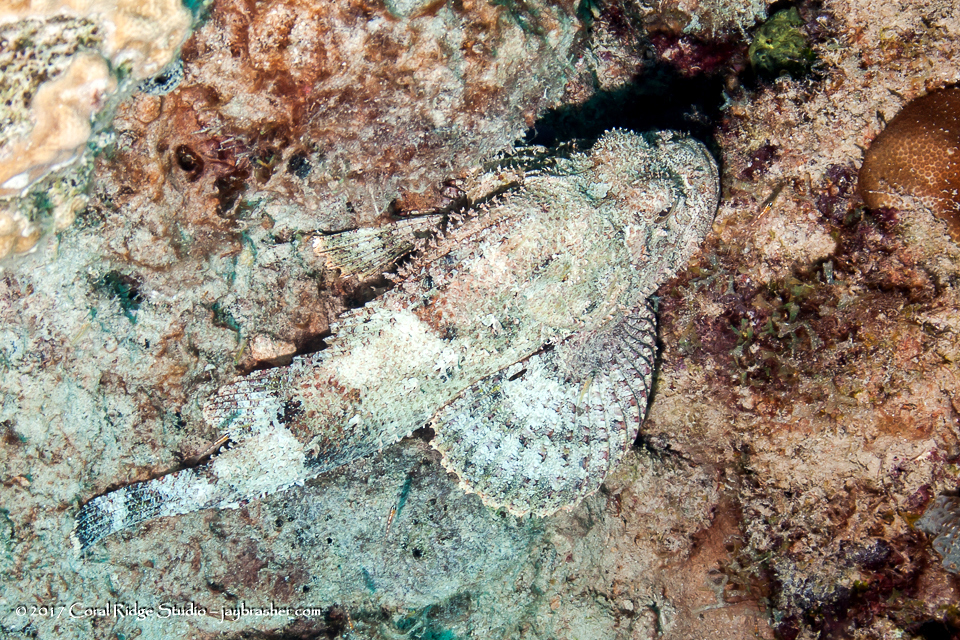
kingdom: Animalia
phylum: Chordata
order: Scorpaeniformes
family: Scorpaenidae
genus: Scorpaena
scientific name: Scorpaena plumieri
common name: Spotted scorpionfish
